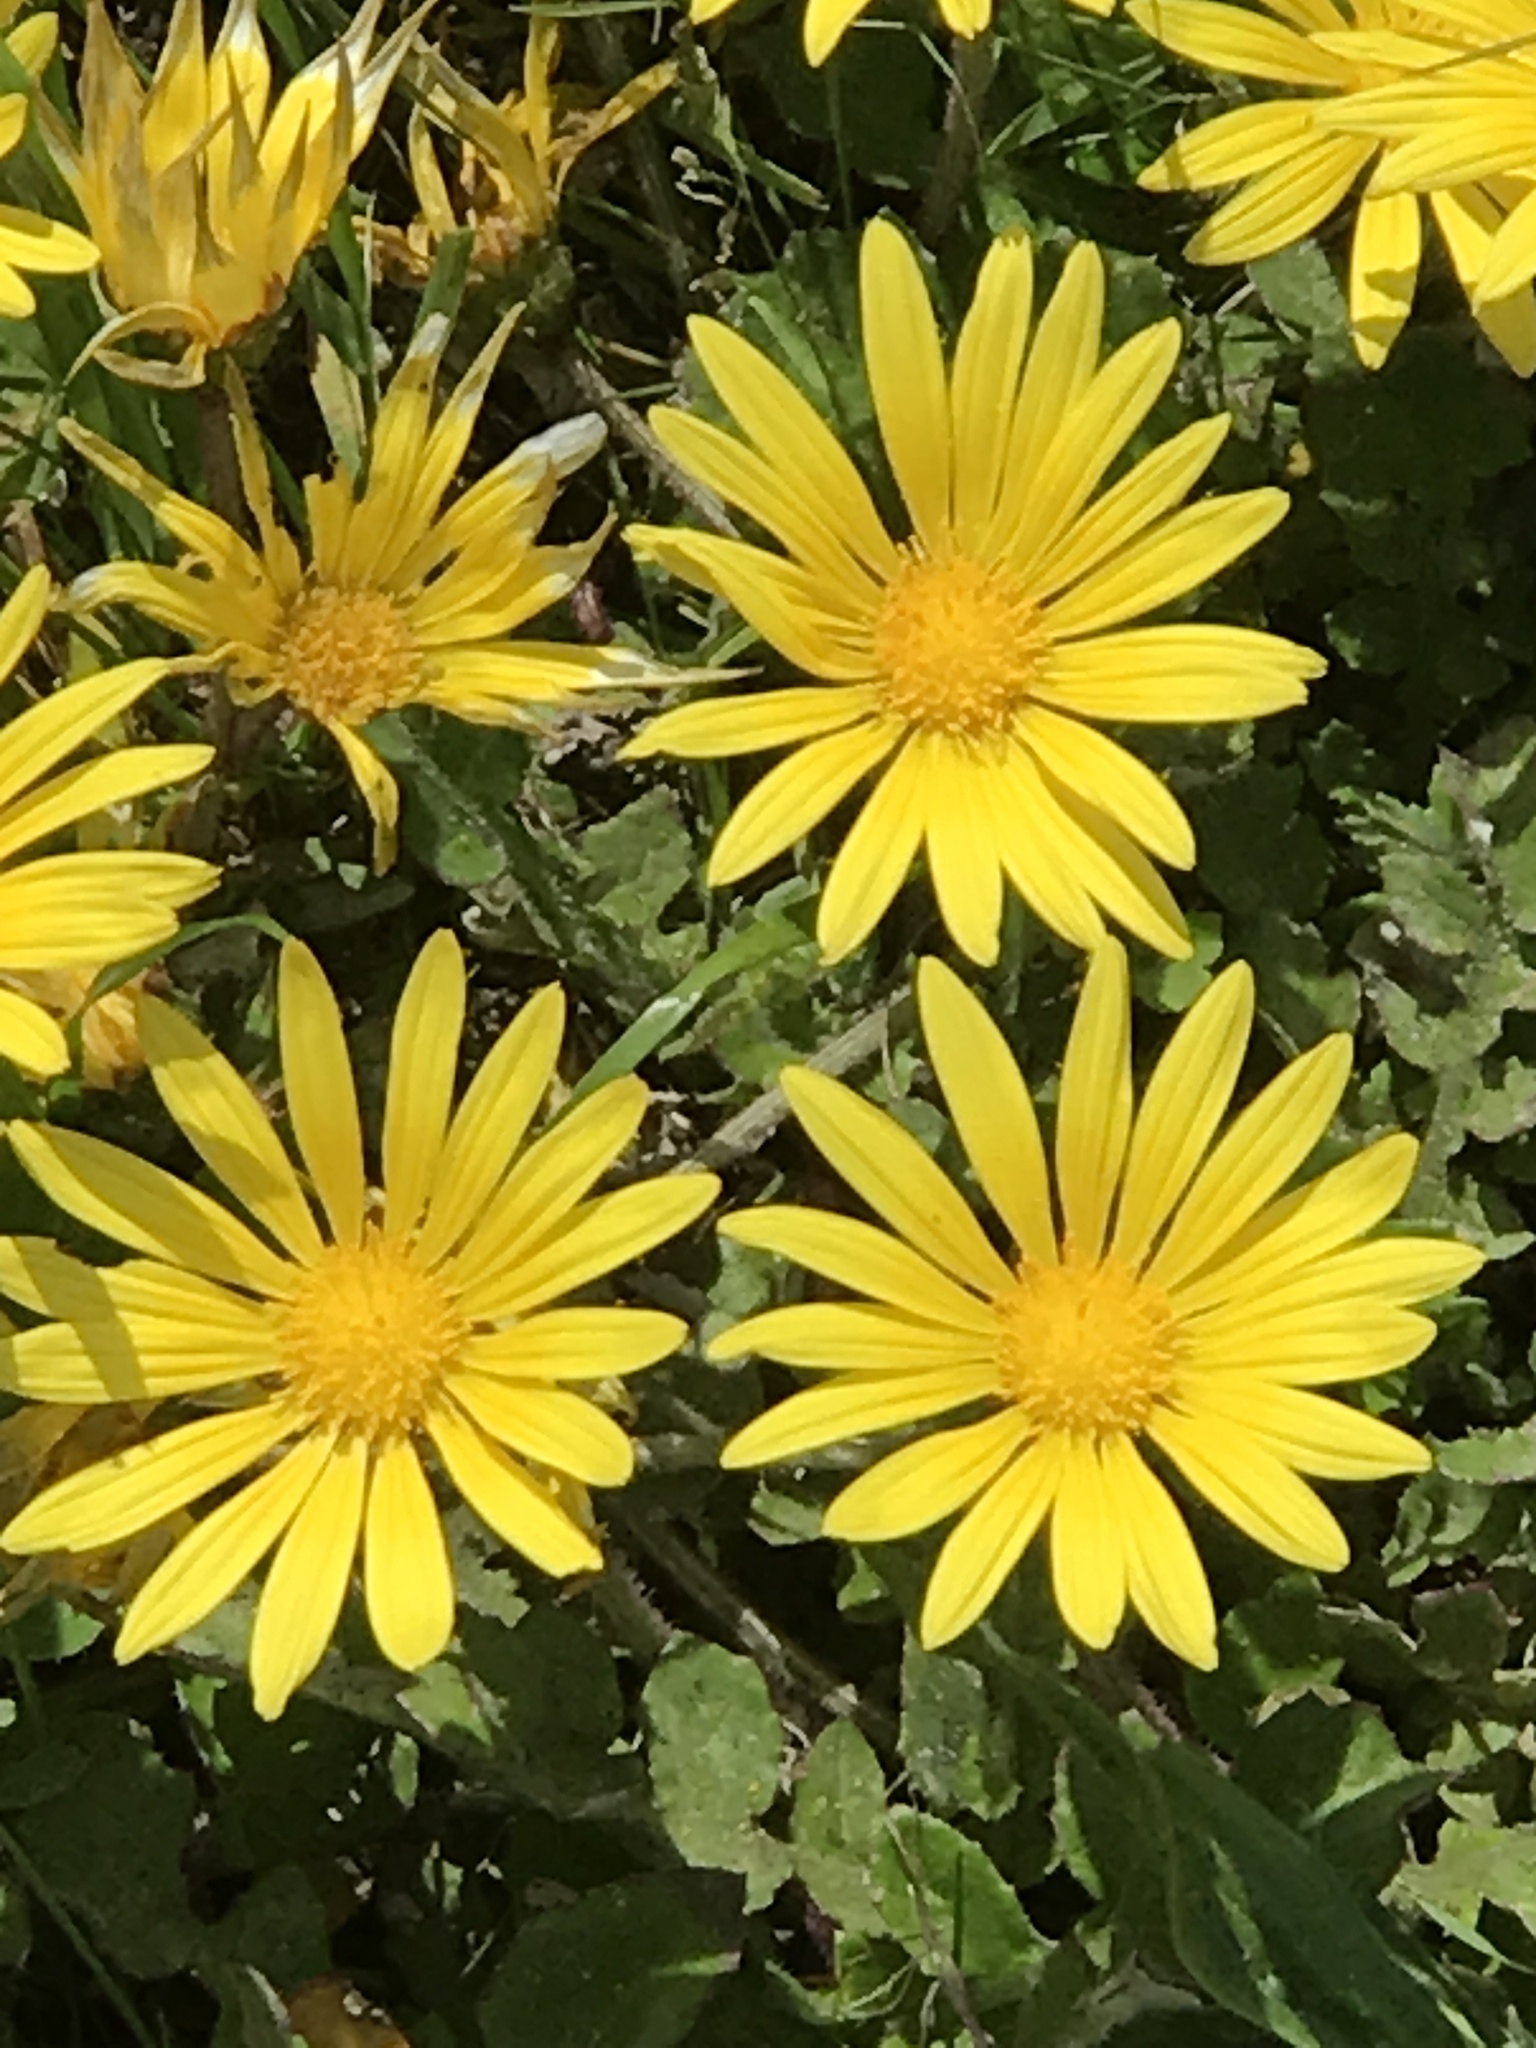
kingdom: Plantae
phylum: Tracheophyta
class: Magnoliopsida
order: Asterales
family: Asteraceae
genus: Arctotheca
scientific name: Arctotheca prostrata
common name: Capeweed
